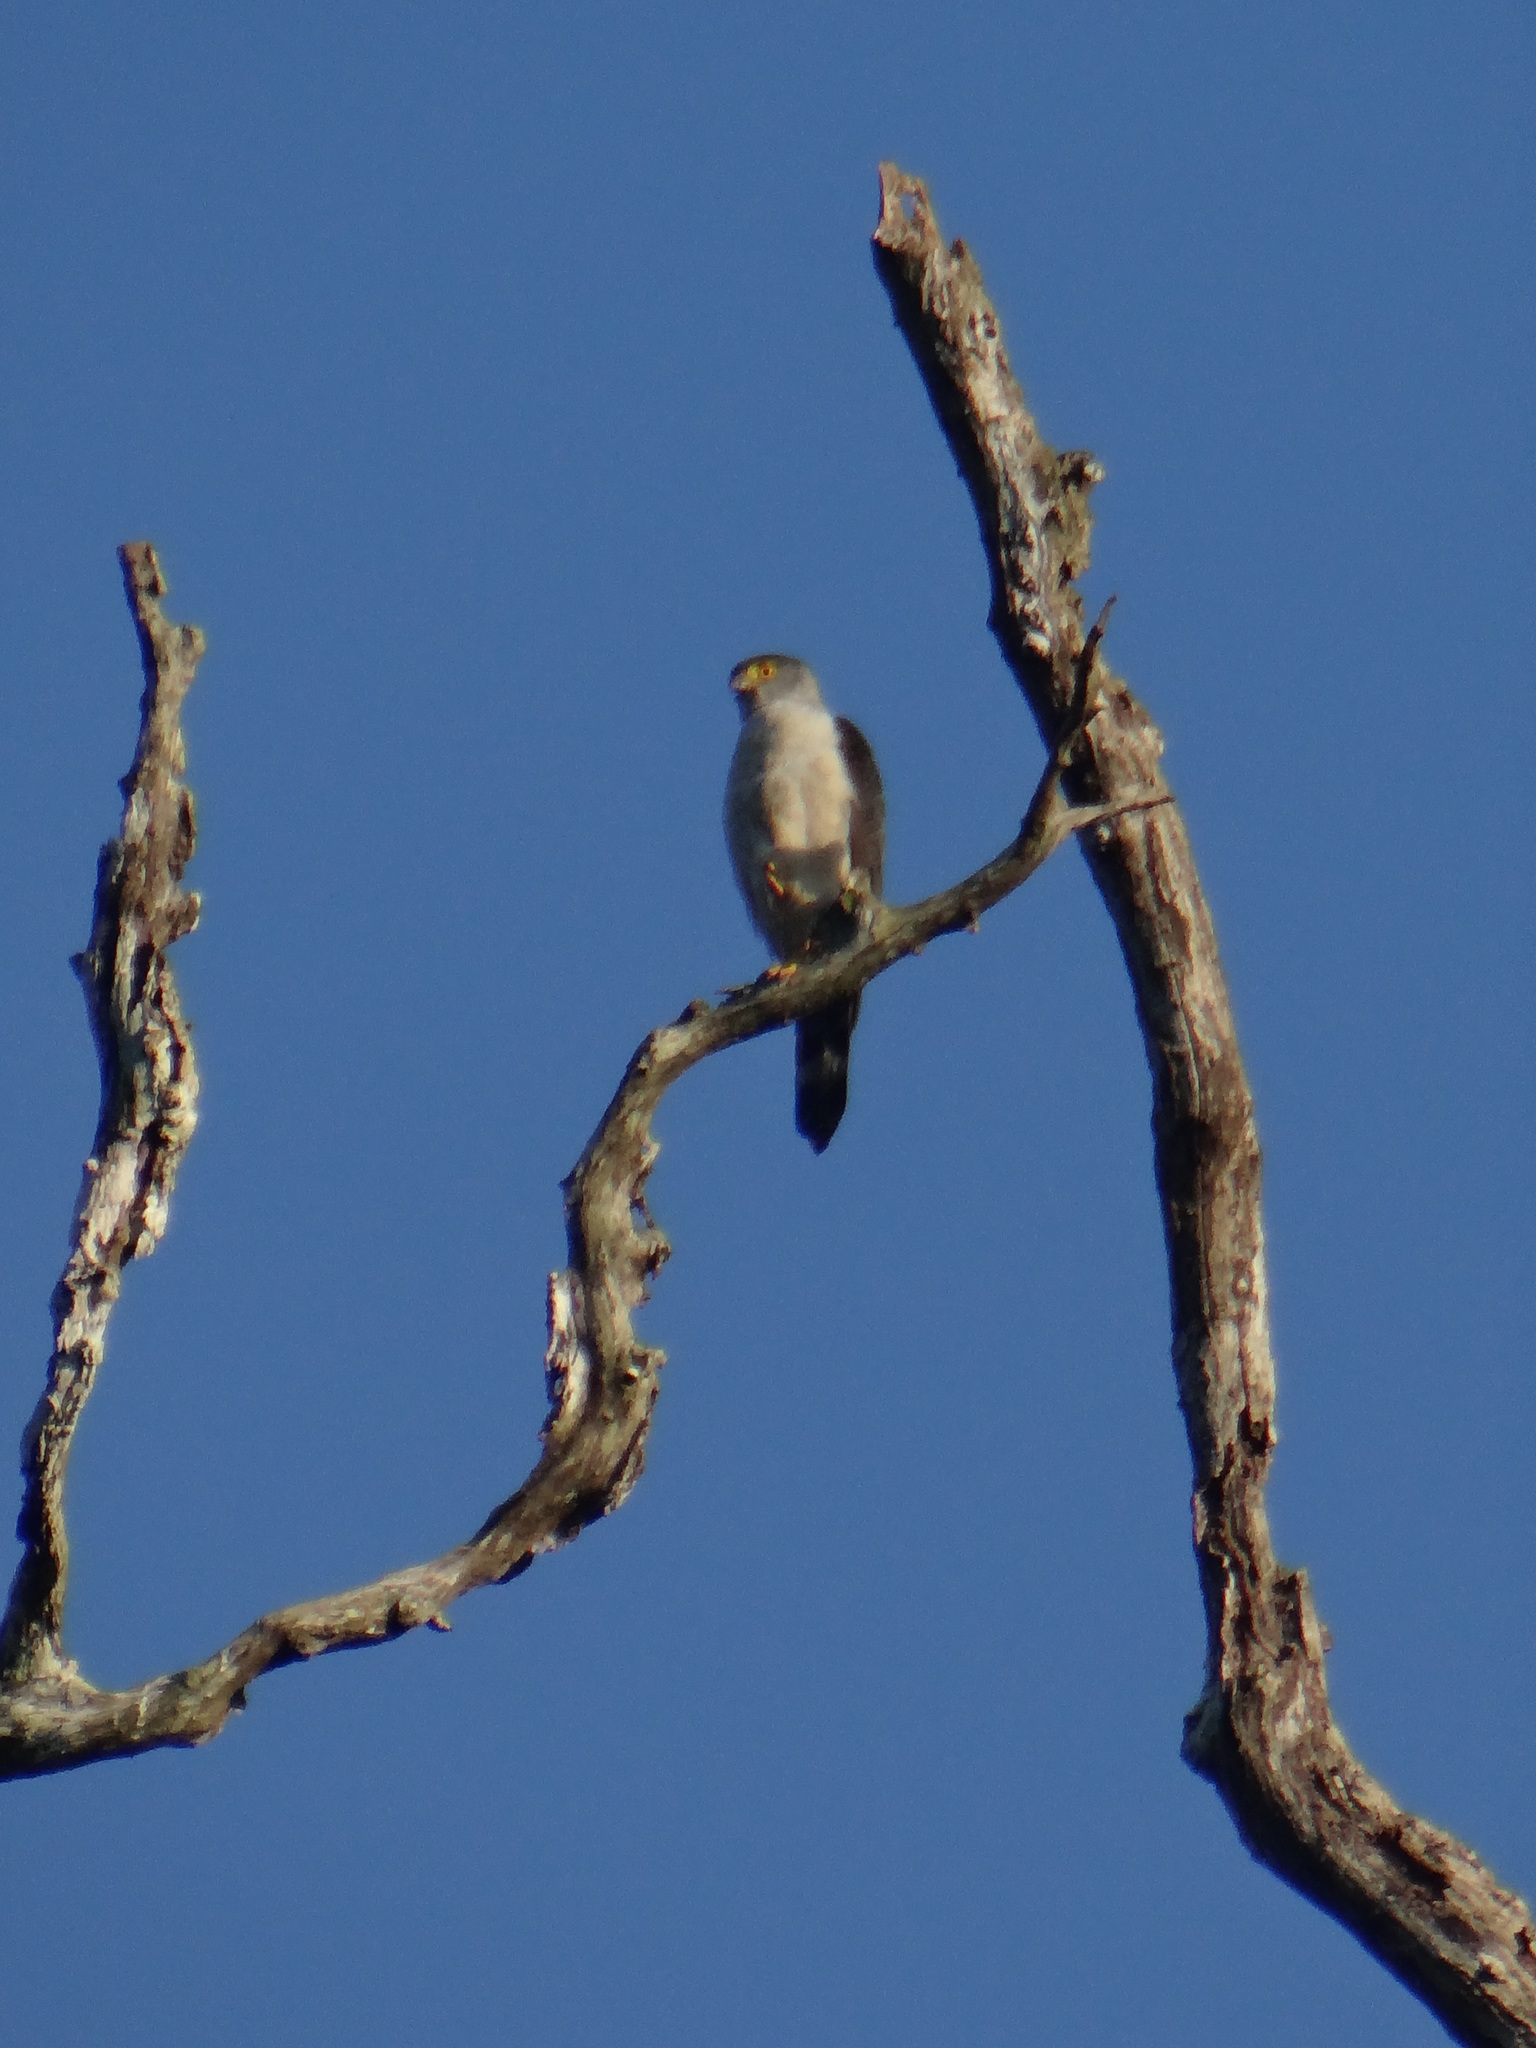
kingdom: Animalia
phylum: Chordata
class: Aves
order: Accipitriformes
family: Accipitridae
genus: Accipiter
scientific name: Accipiter poliogaster
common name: Grey-bellied hawk
